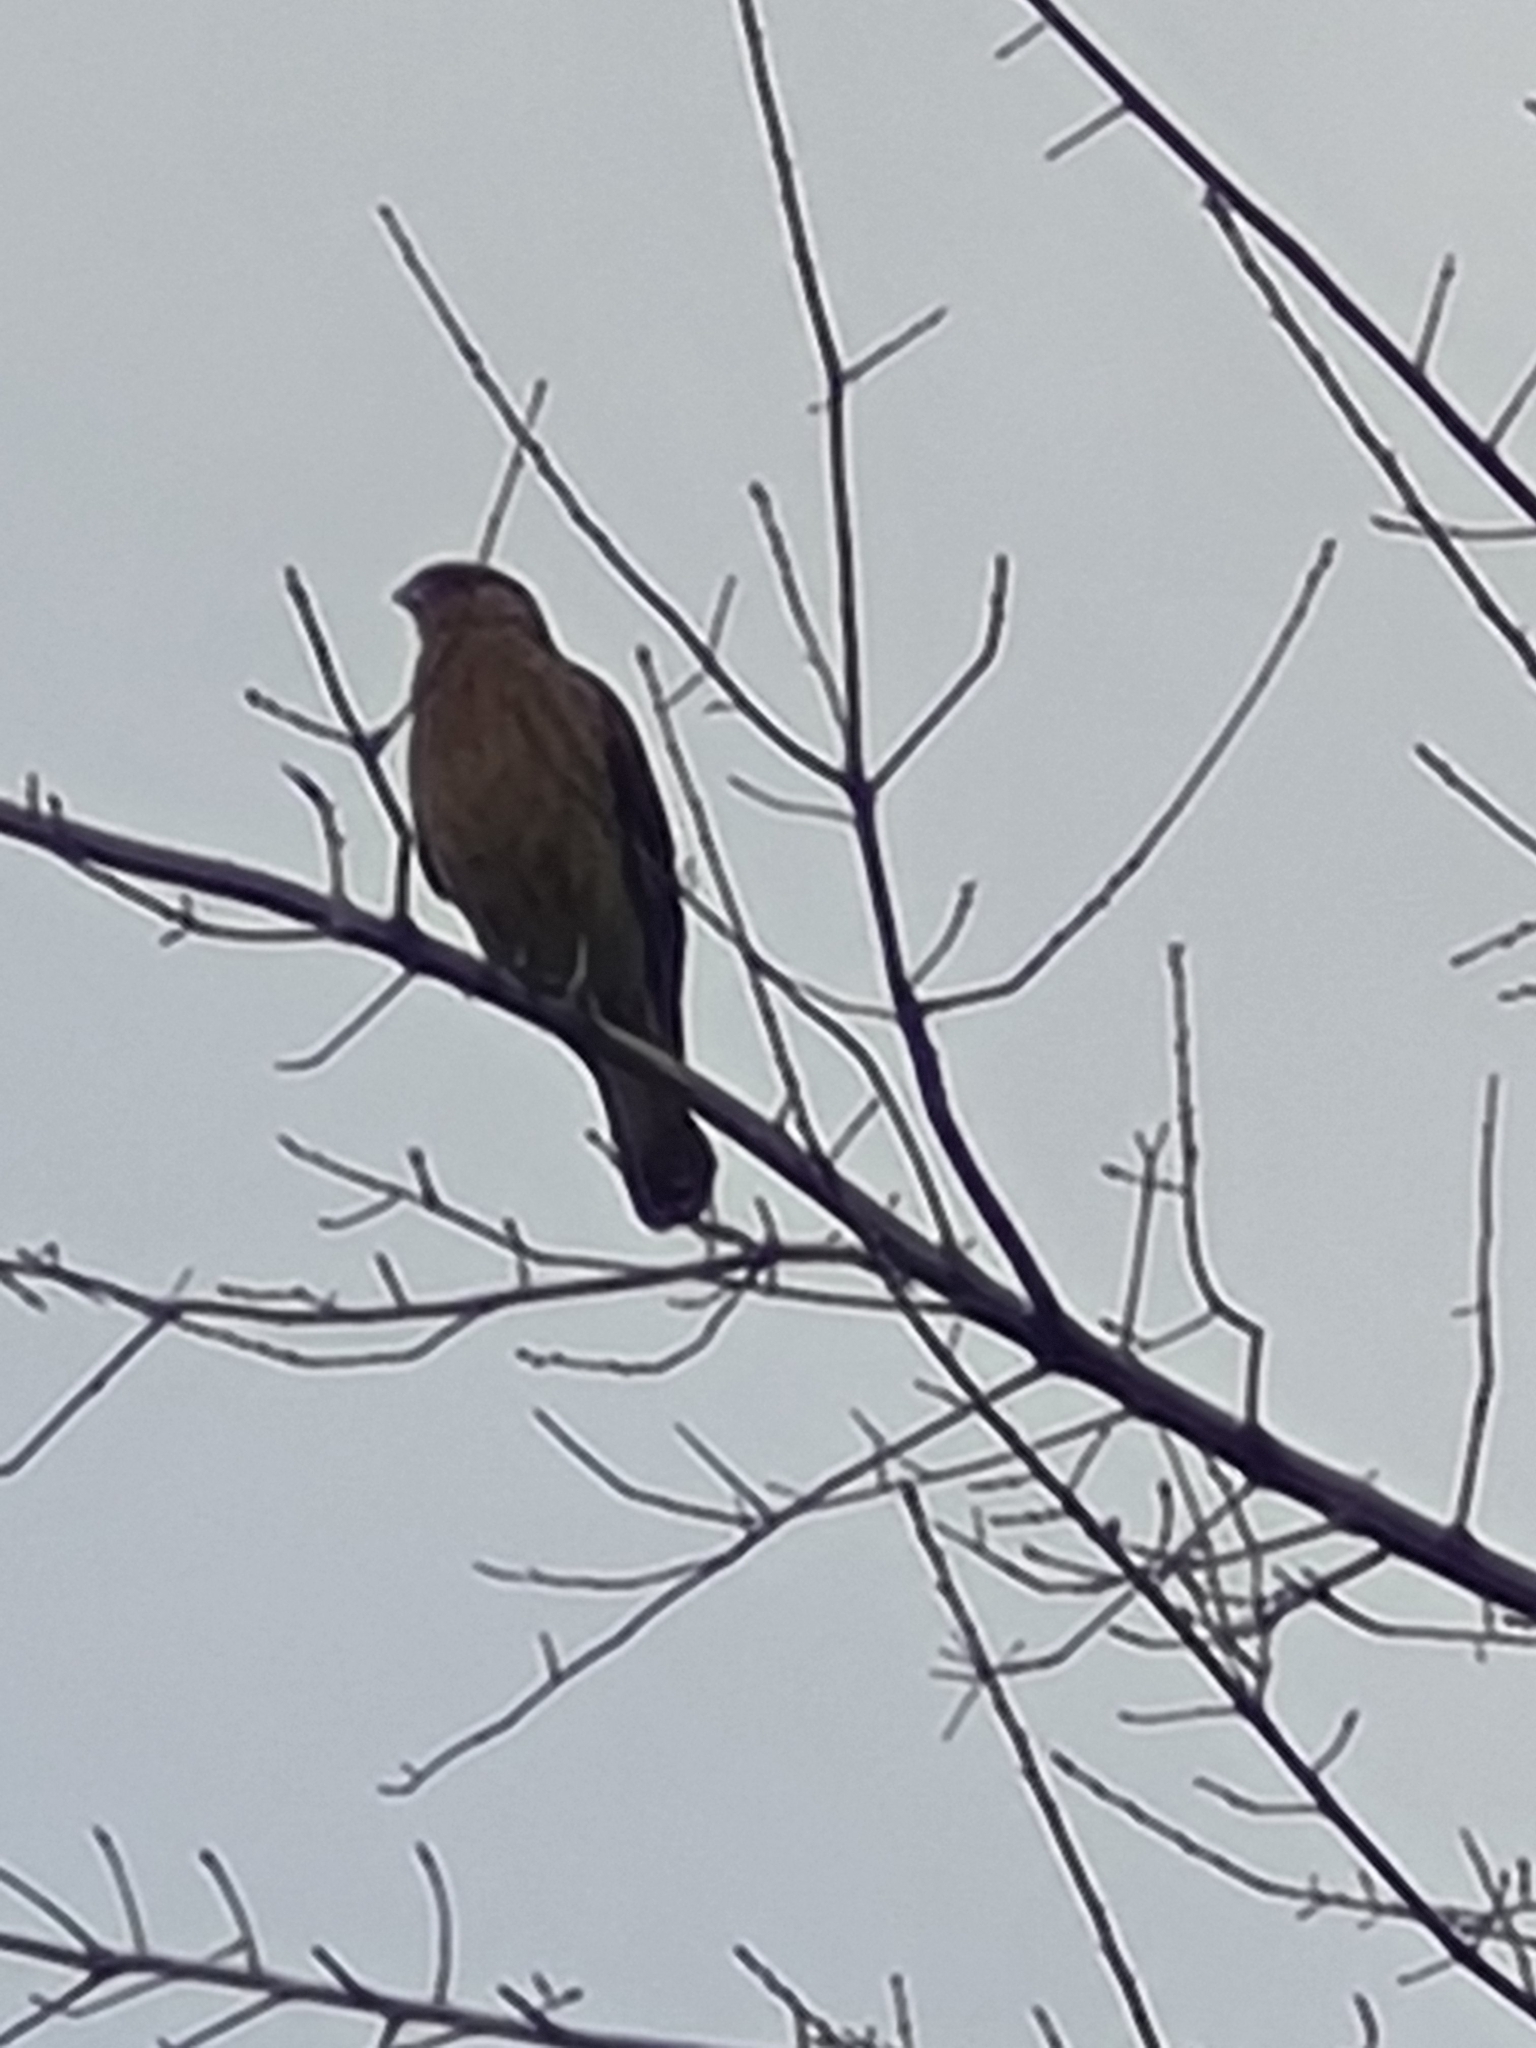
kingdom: Animalia
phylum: Chordata
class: Aves
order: Falconiformes
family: Falconidae
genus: Daptrius
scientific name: Daptrius
